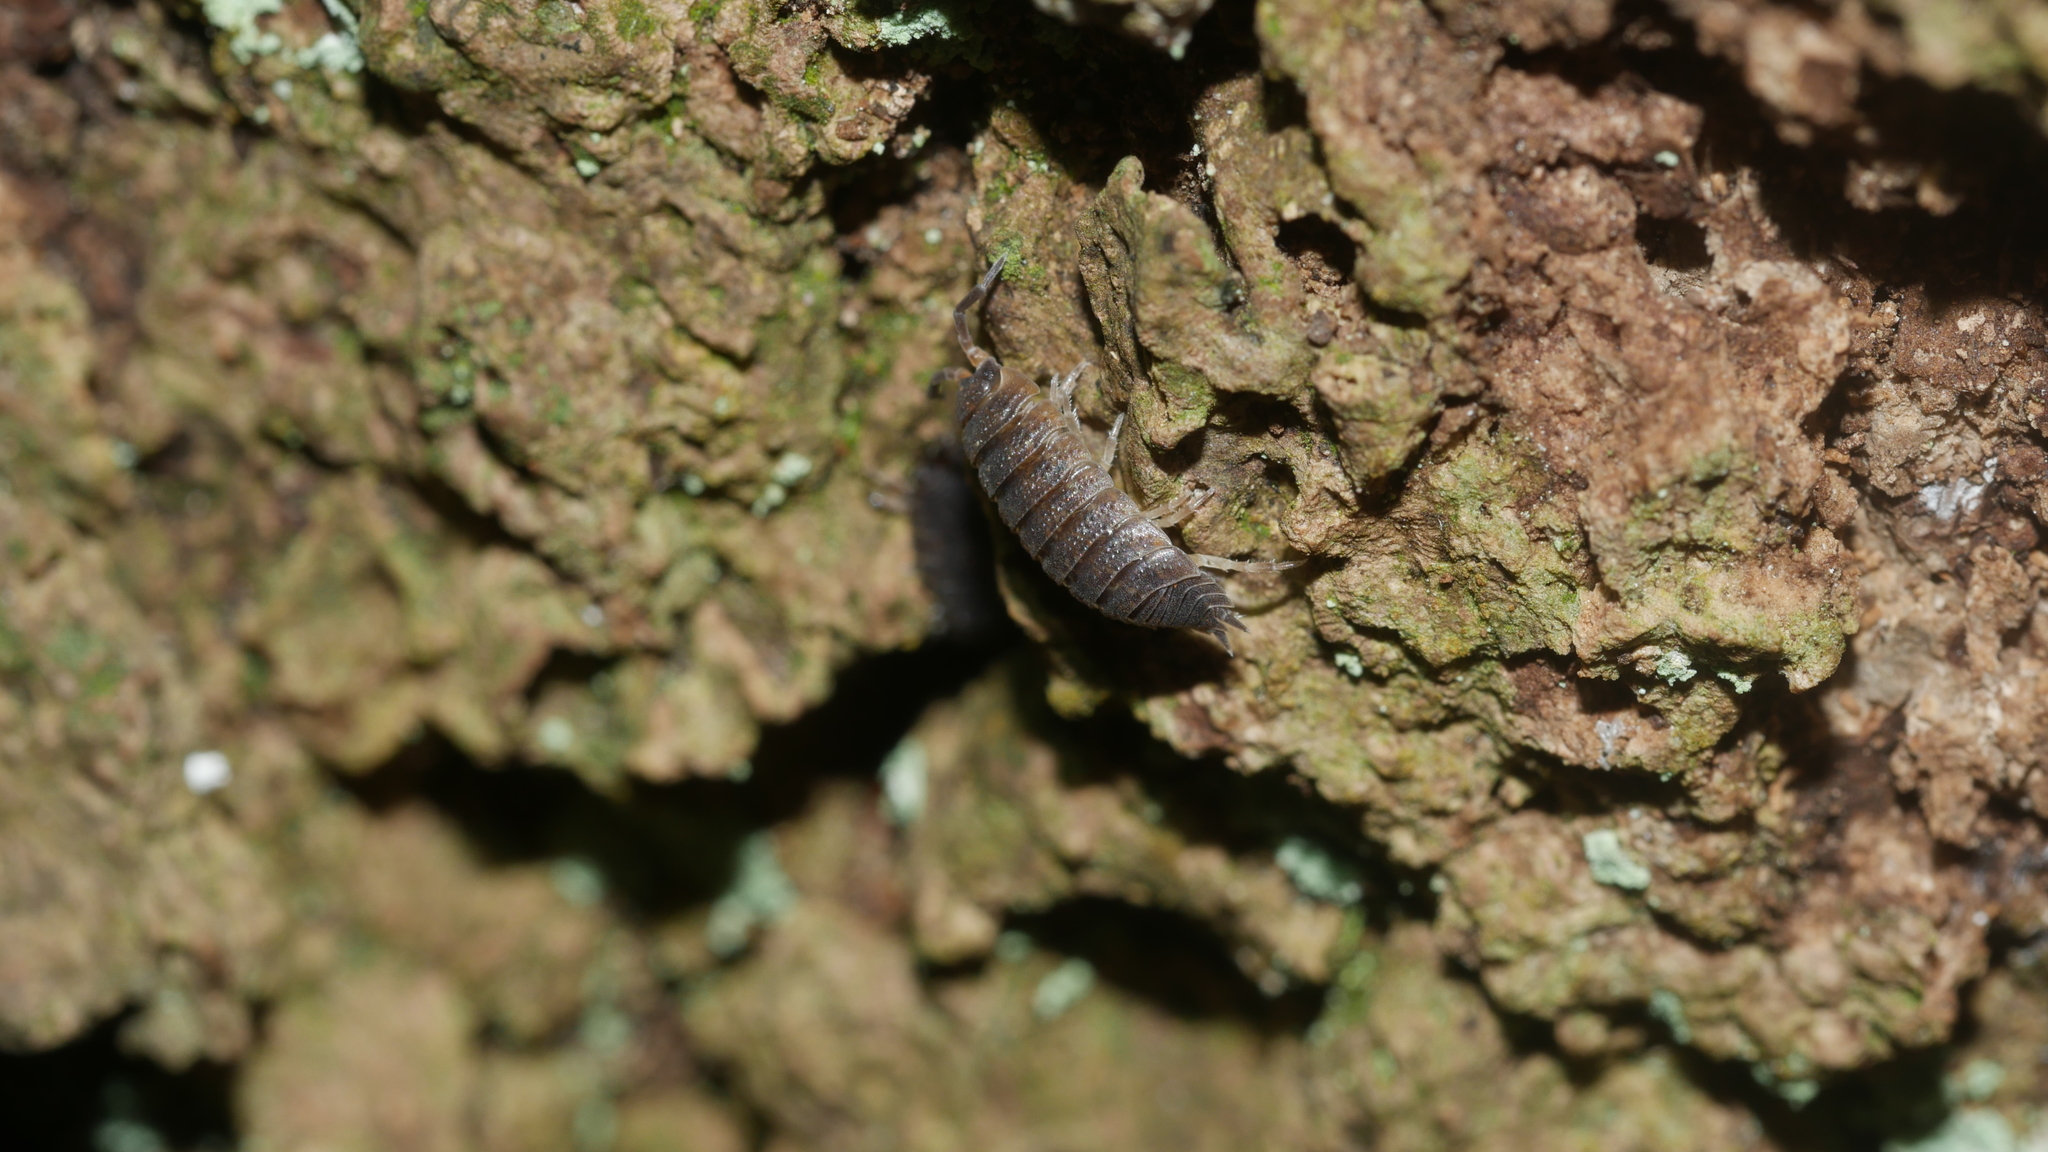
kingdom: Animalia
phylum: Arthropoda
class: Malacostraca
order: Isopoda
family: Porcellionidae
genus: Porcellio
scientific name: Porcellio scaber
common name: Common rough woodlouse
